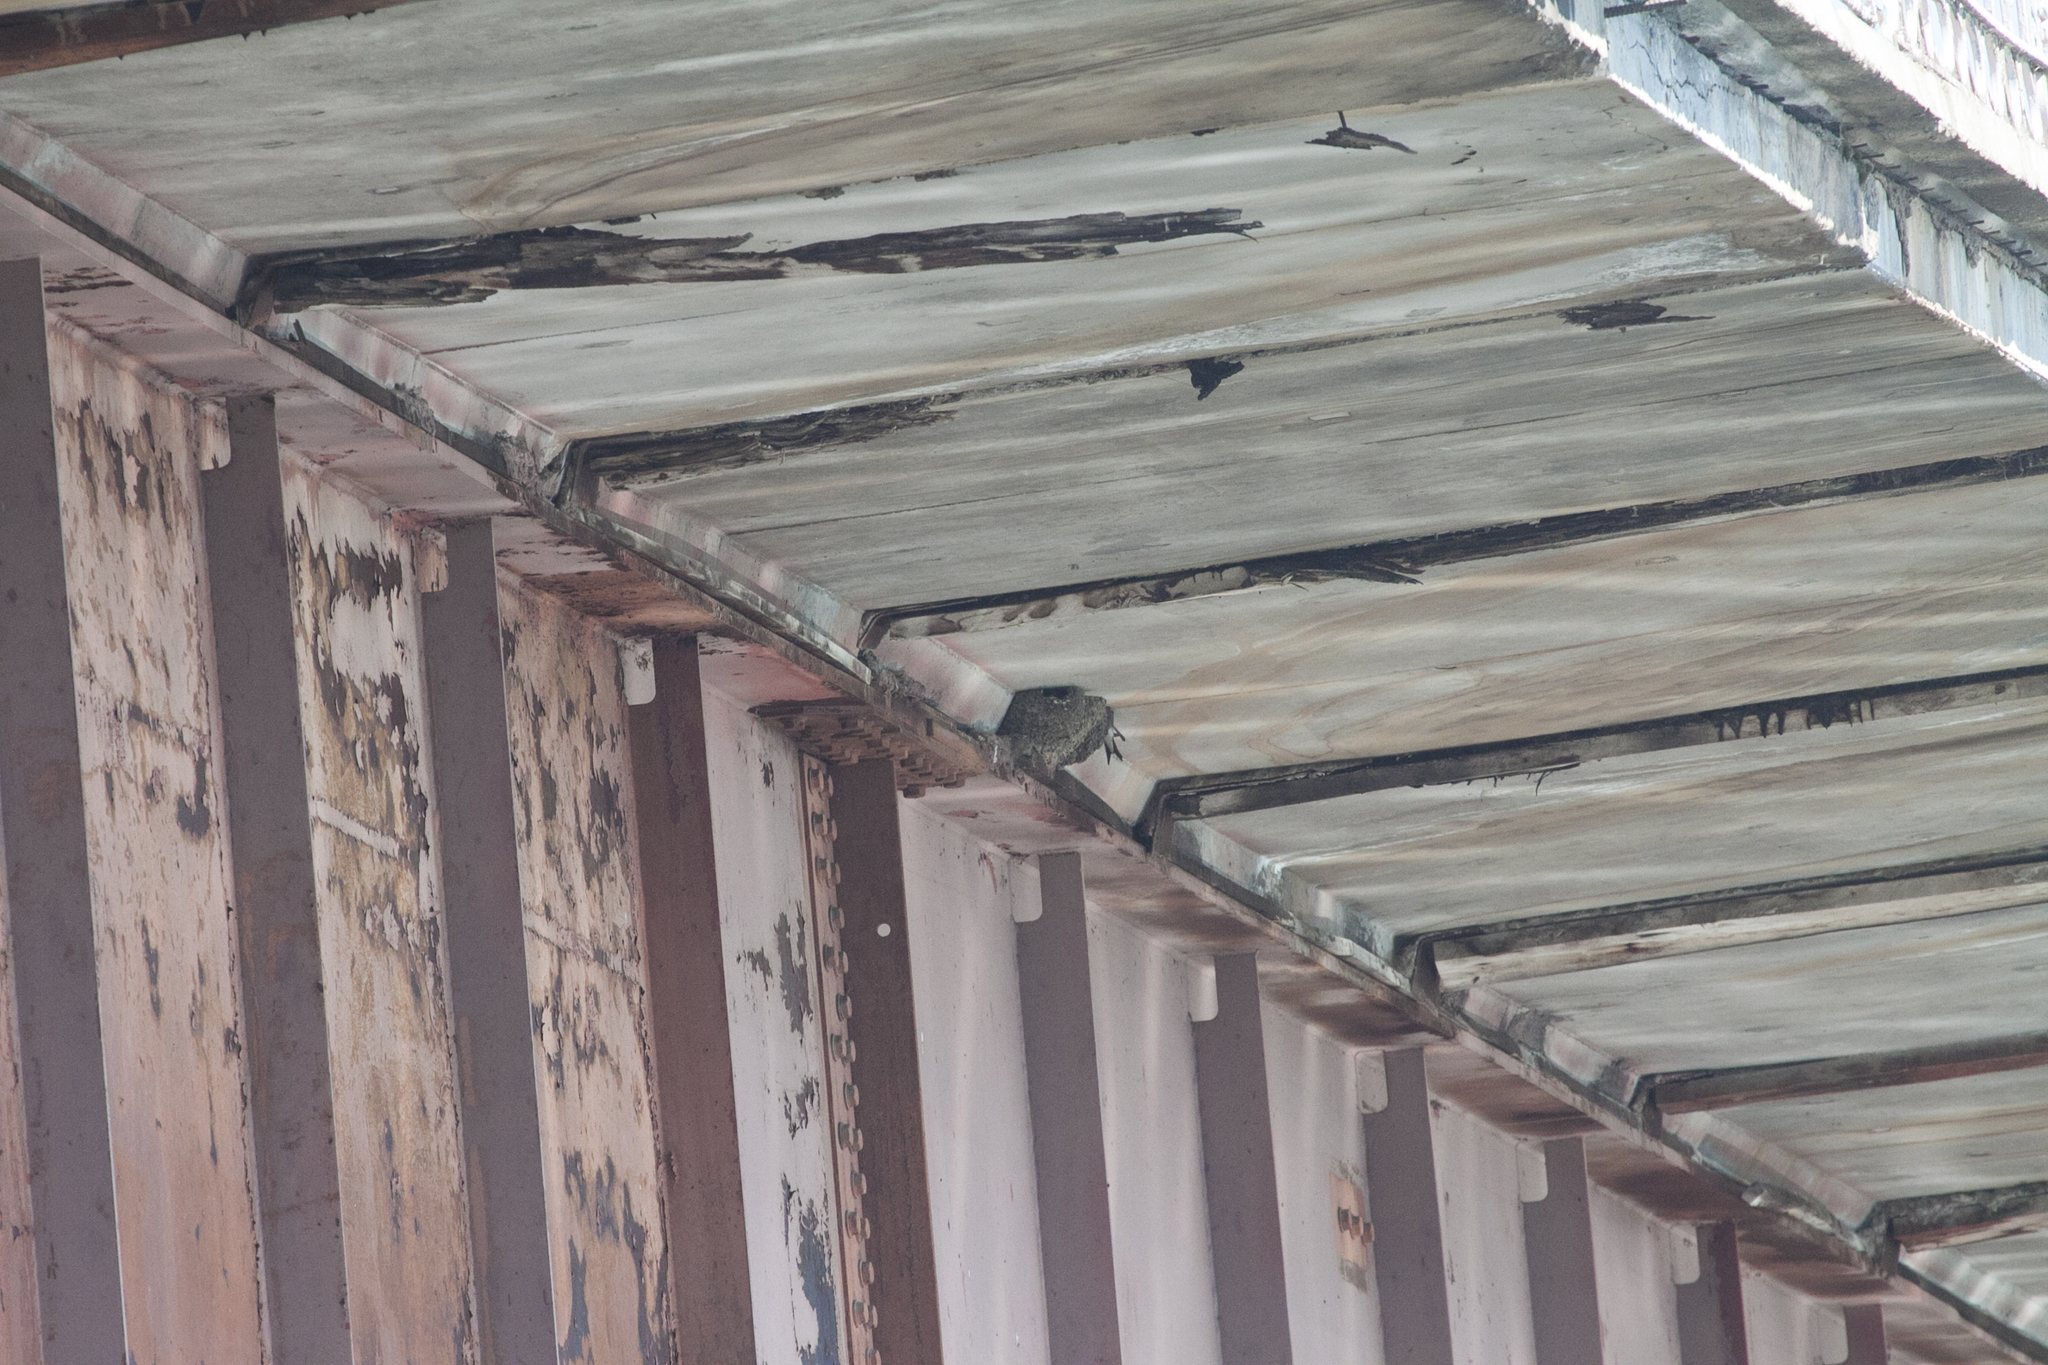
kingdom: Animalia
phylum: Chordata
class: Aves
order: Passeriformes
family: Hirundinidae
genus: Delichon
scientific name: Delichon urbicum
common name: Common house martin
